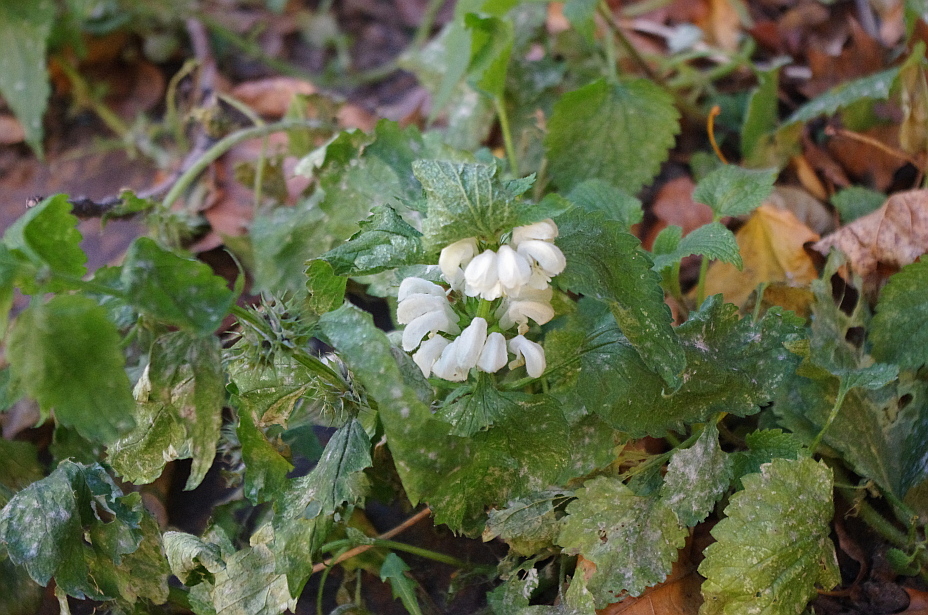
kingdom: Plantae
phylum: Tracheophyta
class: Magnoliopsida
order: Lamiales
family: Lamiaceae
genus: Lamium
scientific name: Lamium album
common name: White dead-nettle
